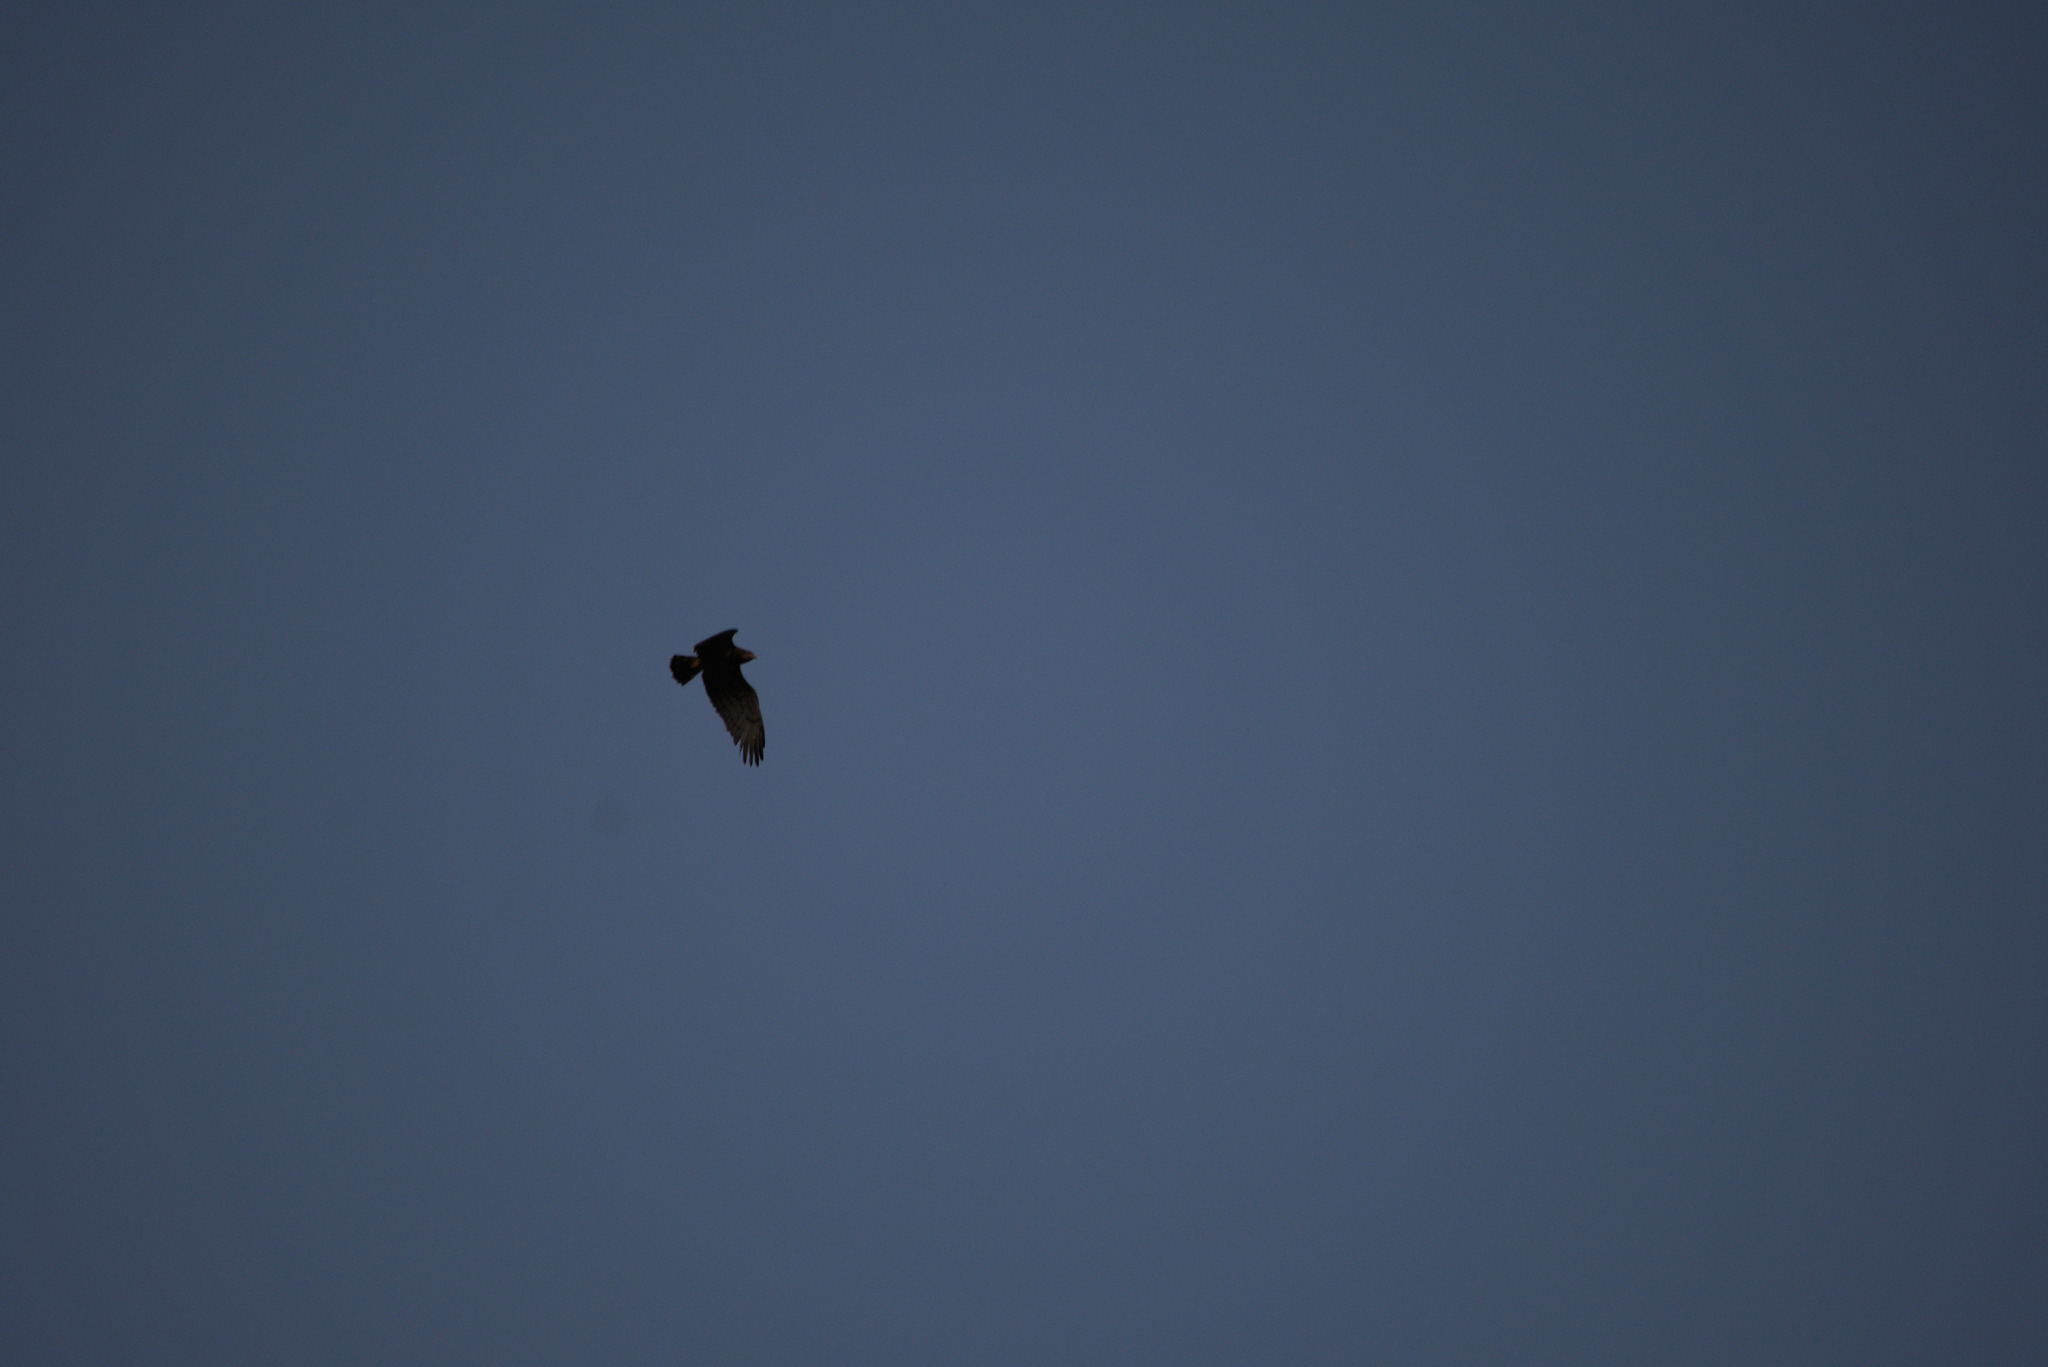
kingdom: Animalia
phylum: Chordata
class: Aves
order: Accipitriformes
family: Accipitridae
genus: Circaetus
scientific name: Circaetus gallicus
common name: Short-toed snake eagle
